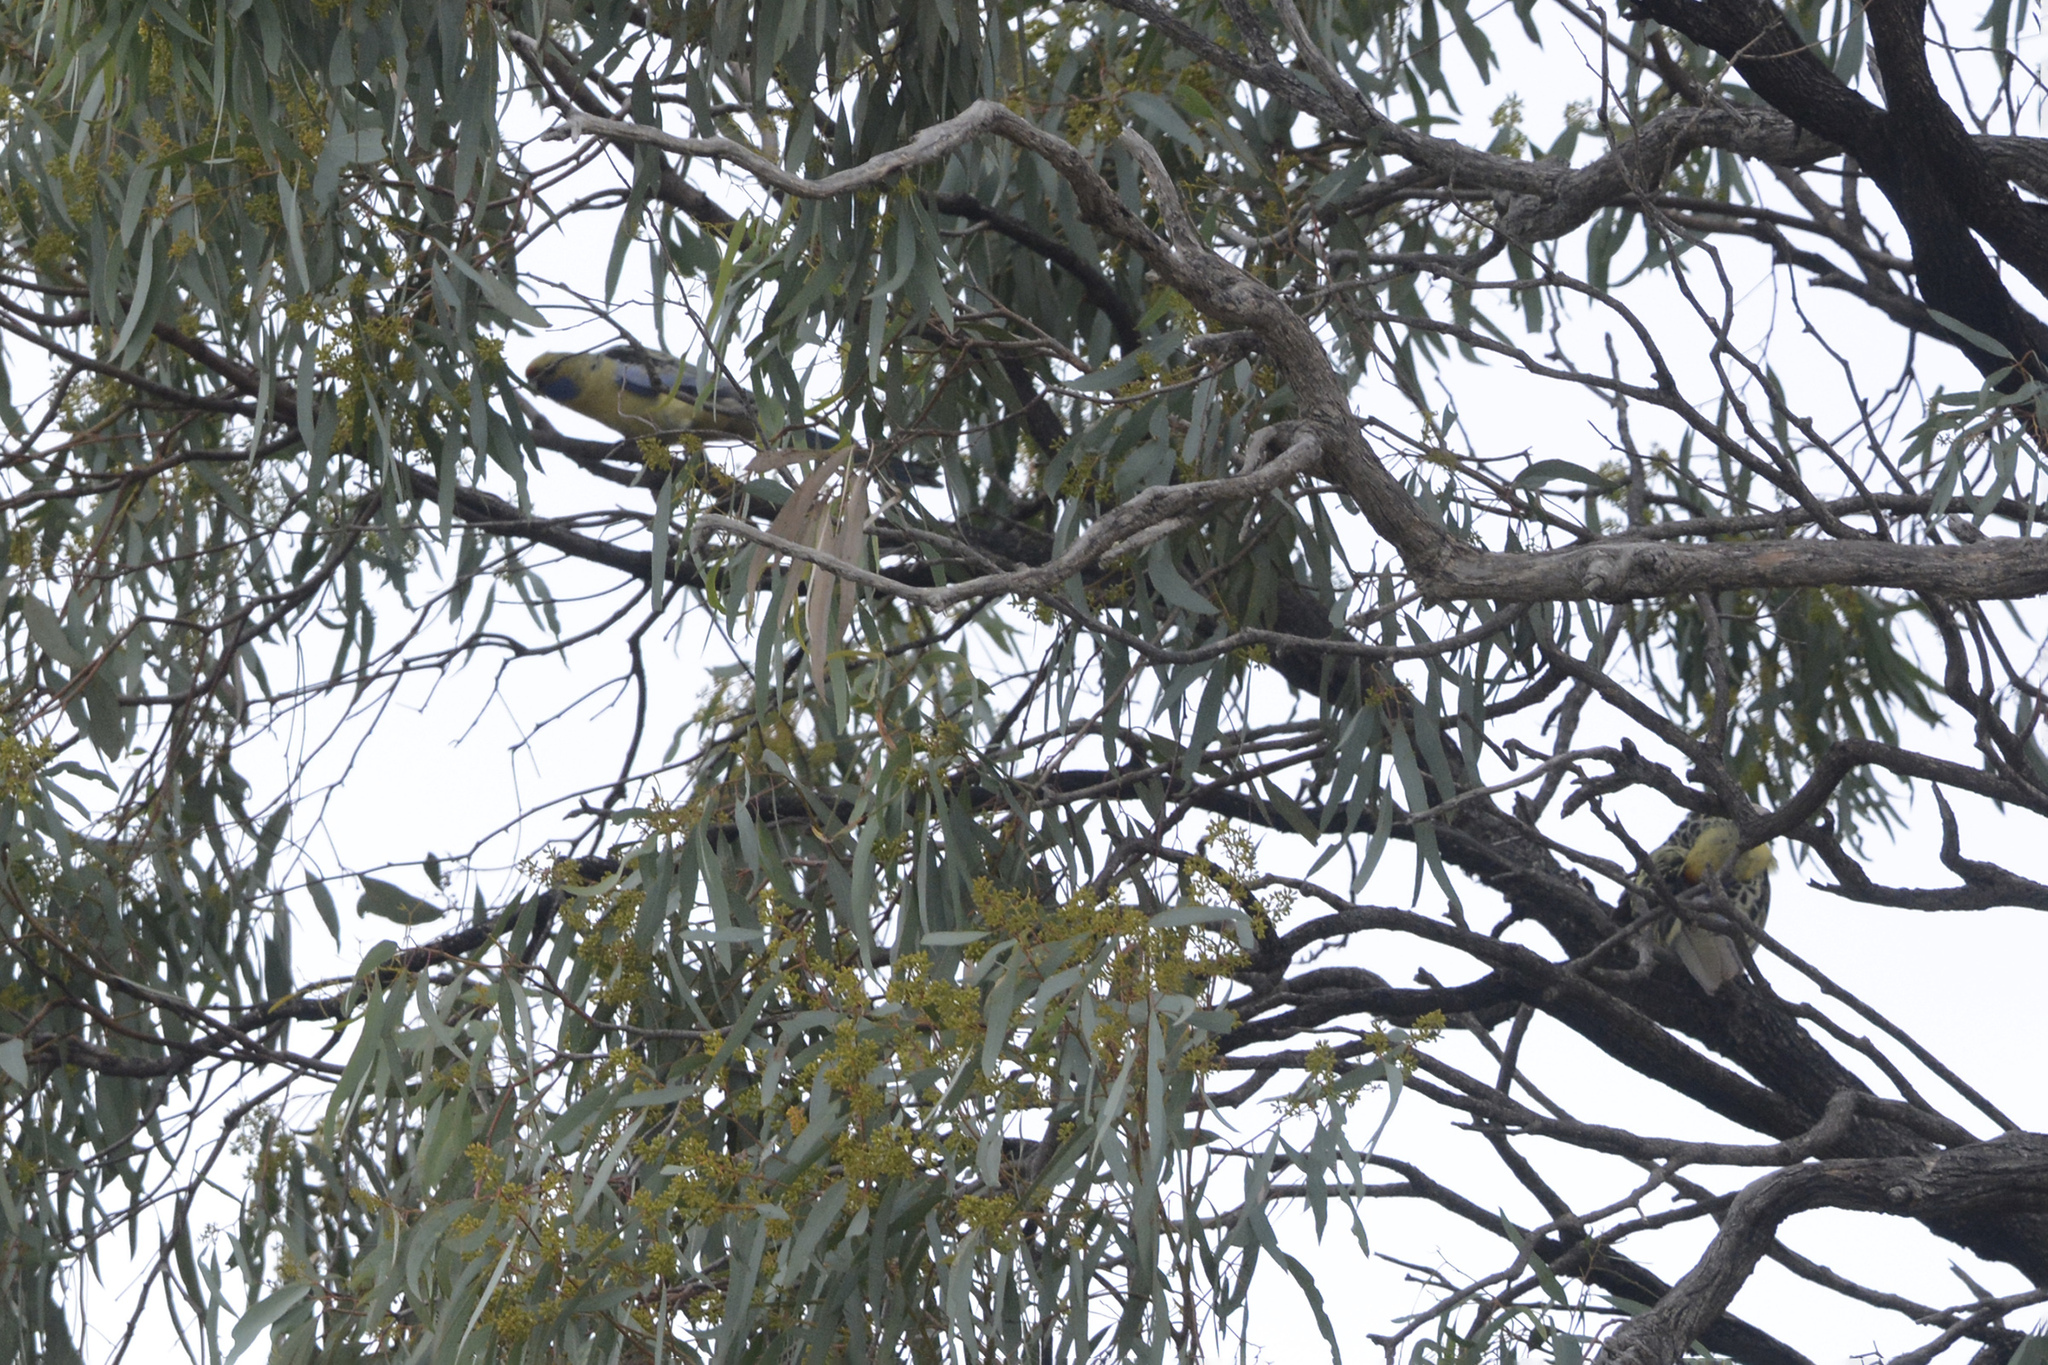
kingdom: Animalia
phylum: Chordata
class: Aves
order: Psittaciformes
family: Psittacidae
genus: Platycercus
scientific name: Platycercus elegans
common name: Crimson rosella
